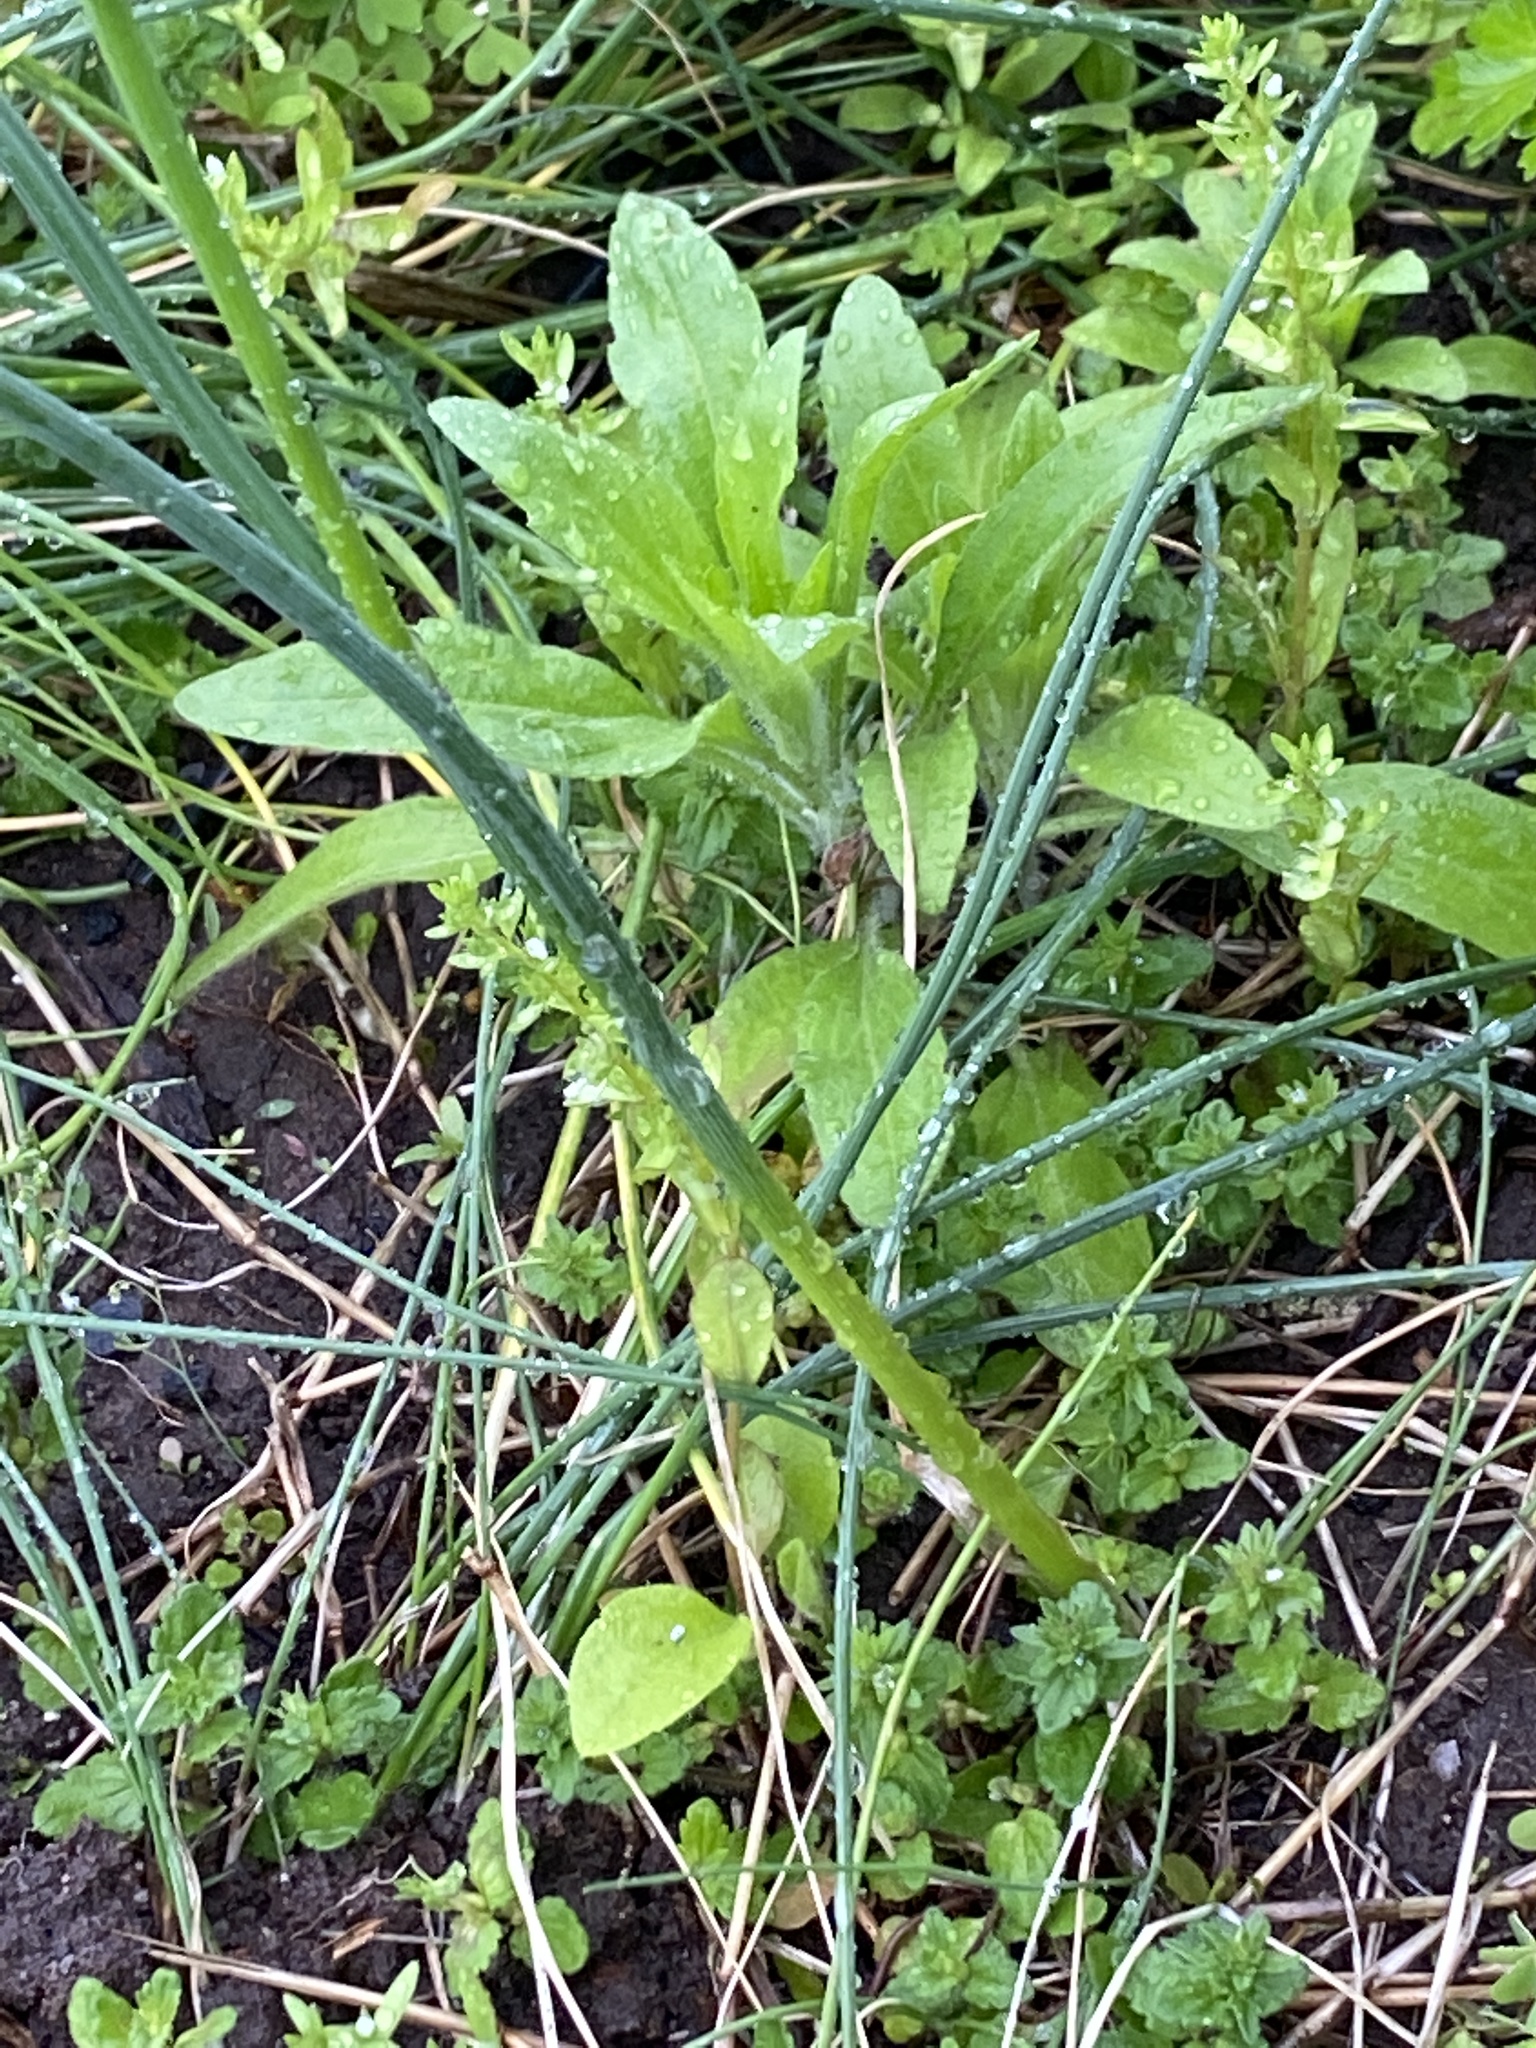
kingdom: Plantae
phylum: Tracheophyta
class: Liliopsida
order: Asparagales
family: Amaryllidaceae
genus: Allium
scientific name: Allium vineale
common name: Crow garlic
